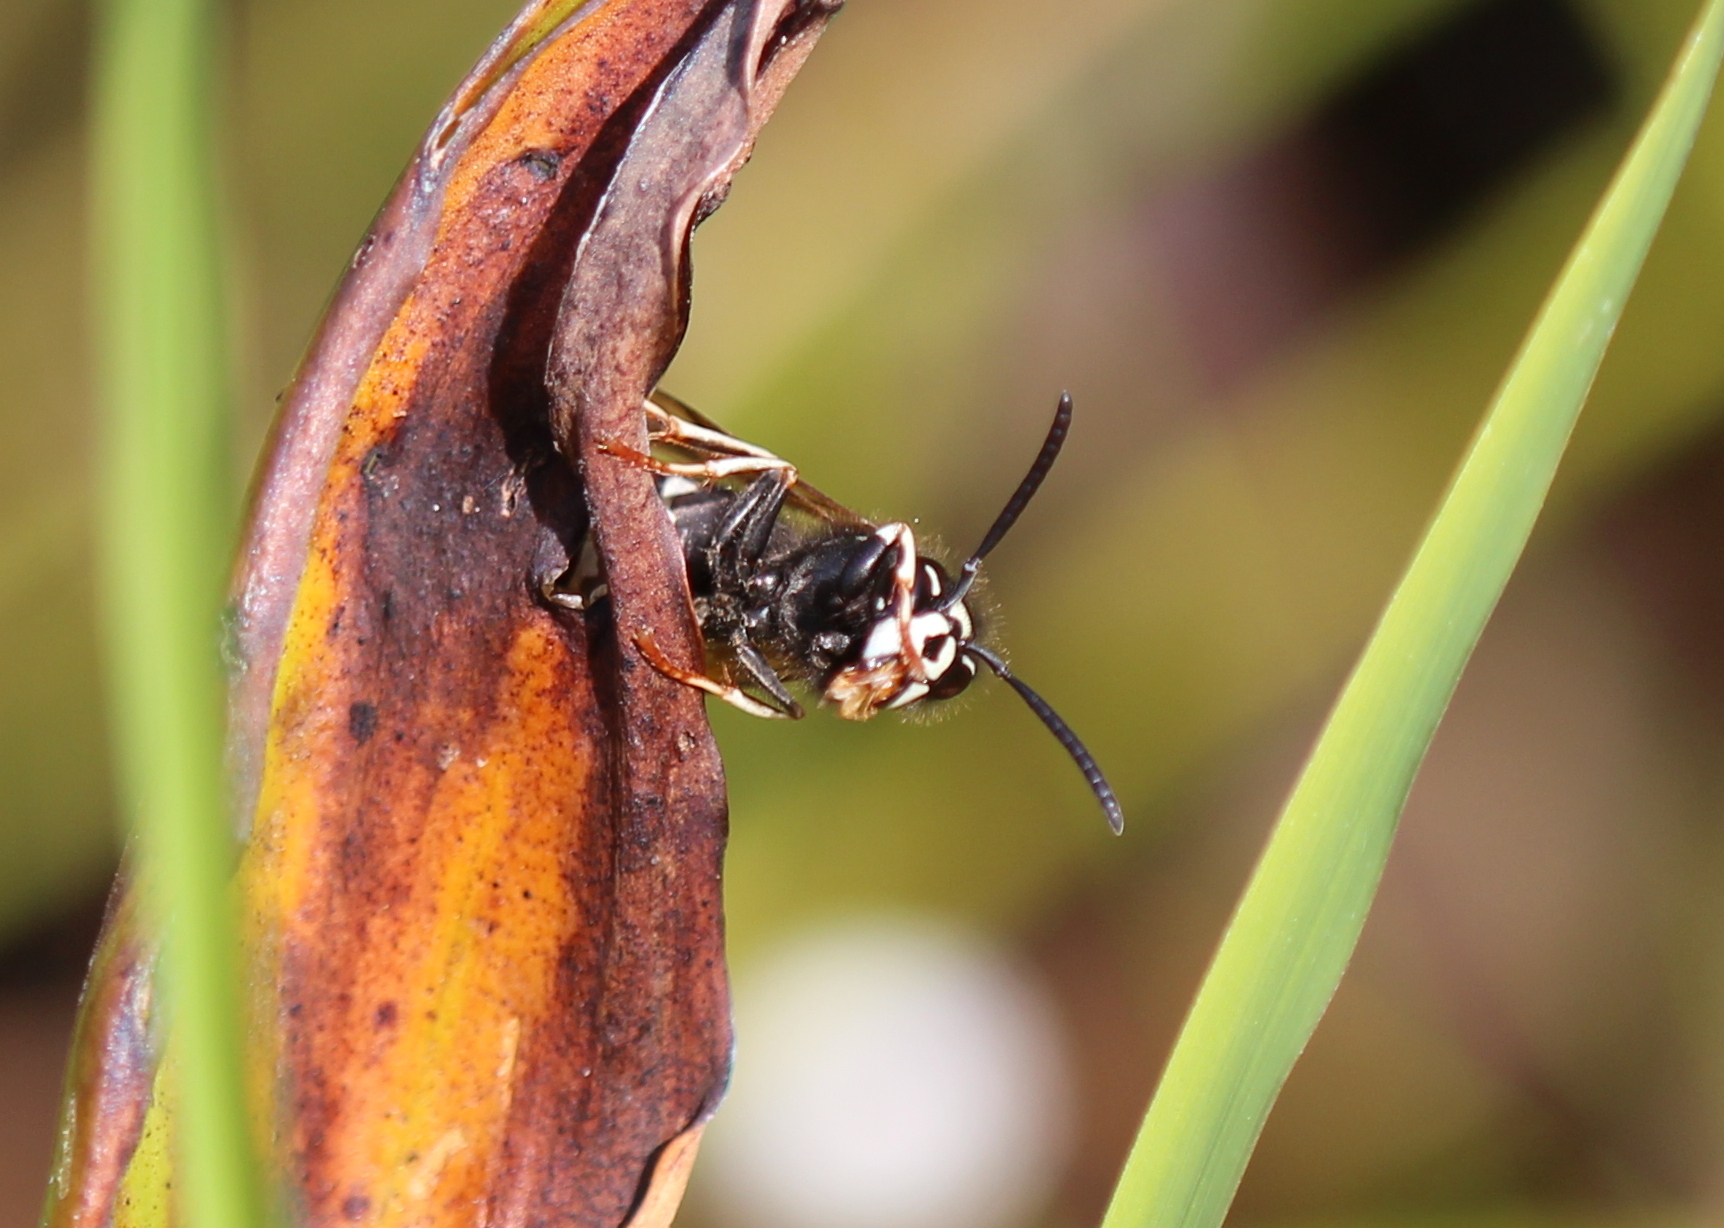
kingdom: Animalia
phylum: Arthropoda
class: Insecta
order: Hymenoptera
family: Vespidae
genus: Vespula
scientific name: Vespula consobrina
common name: Blackjacket
